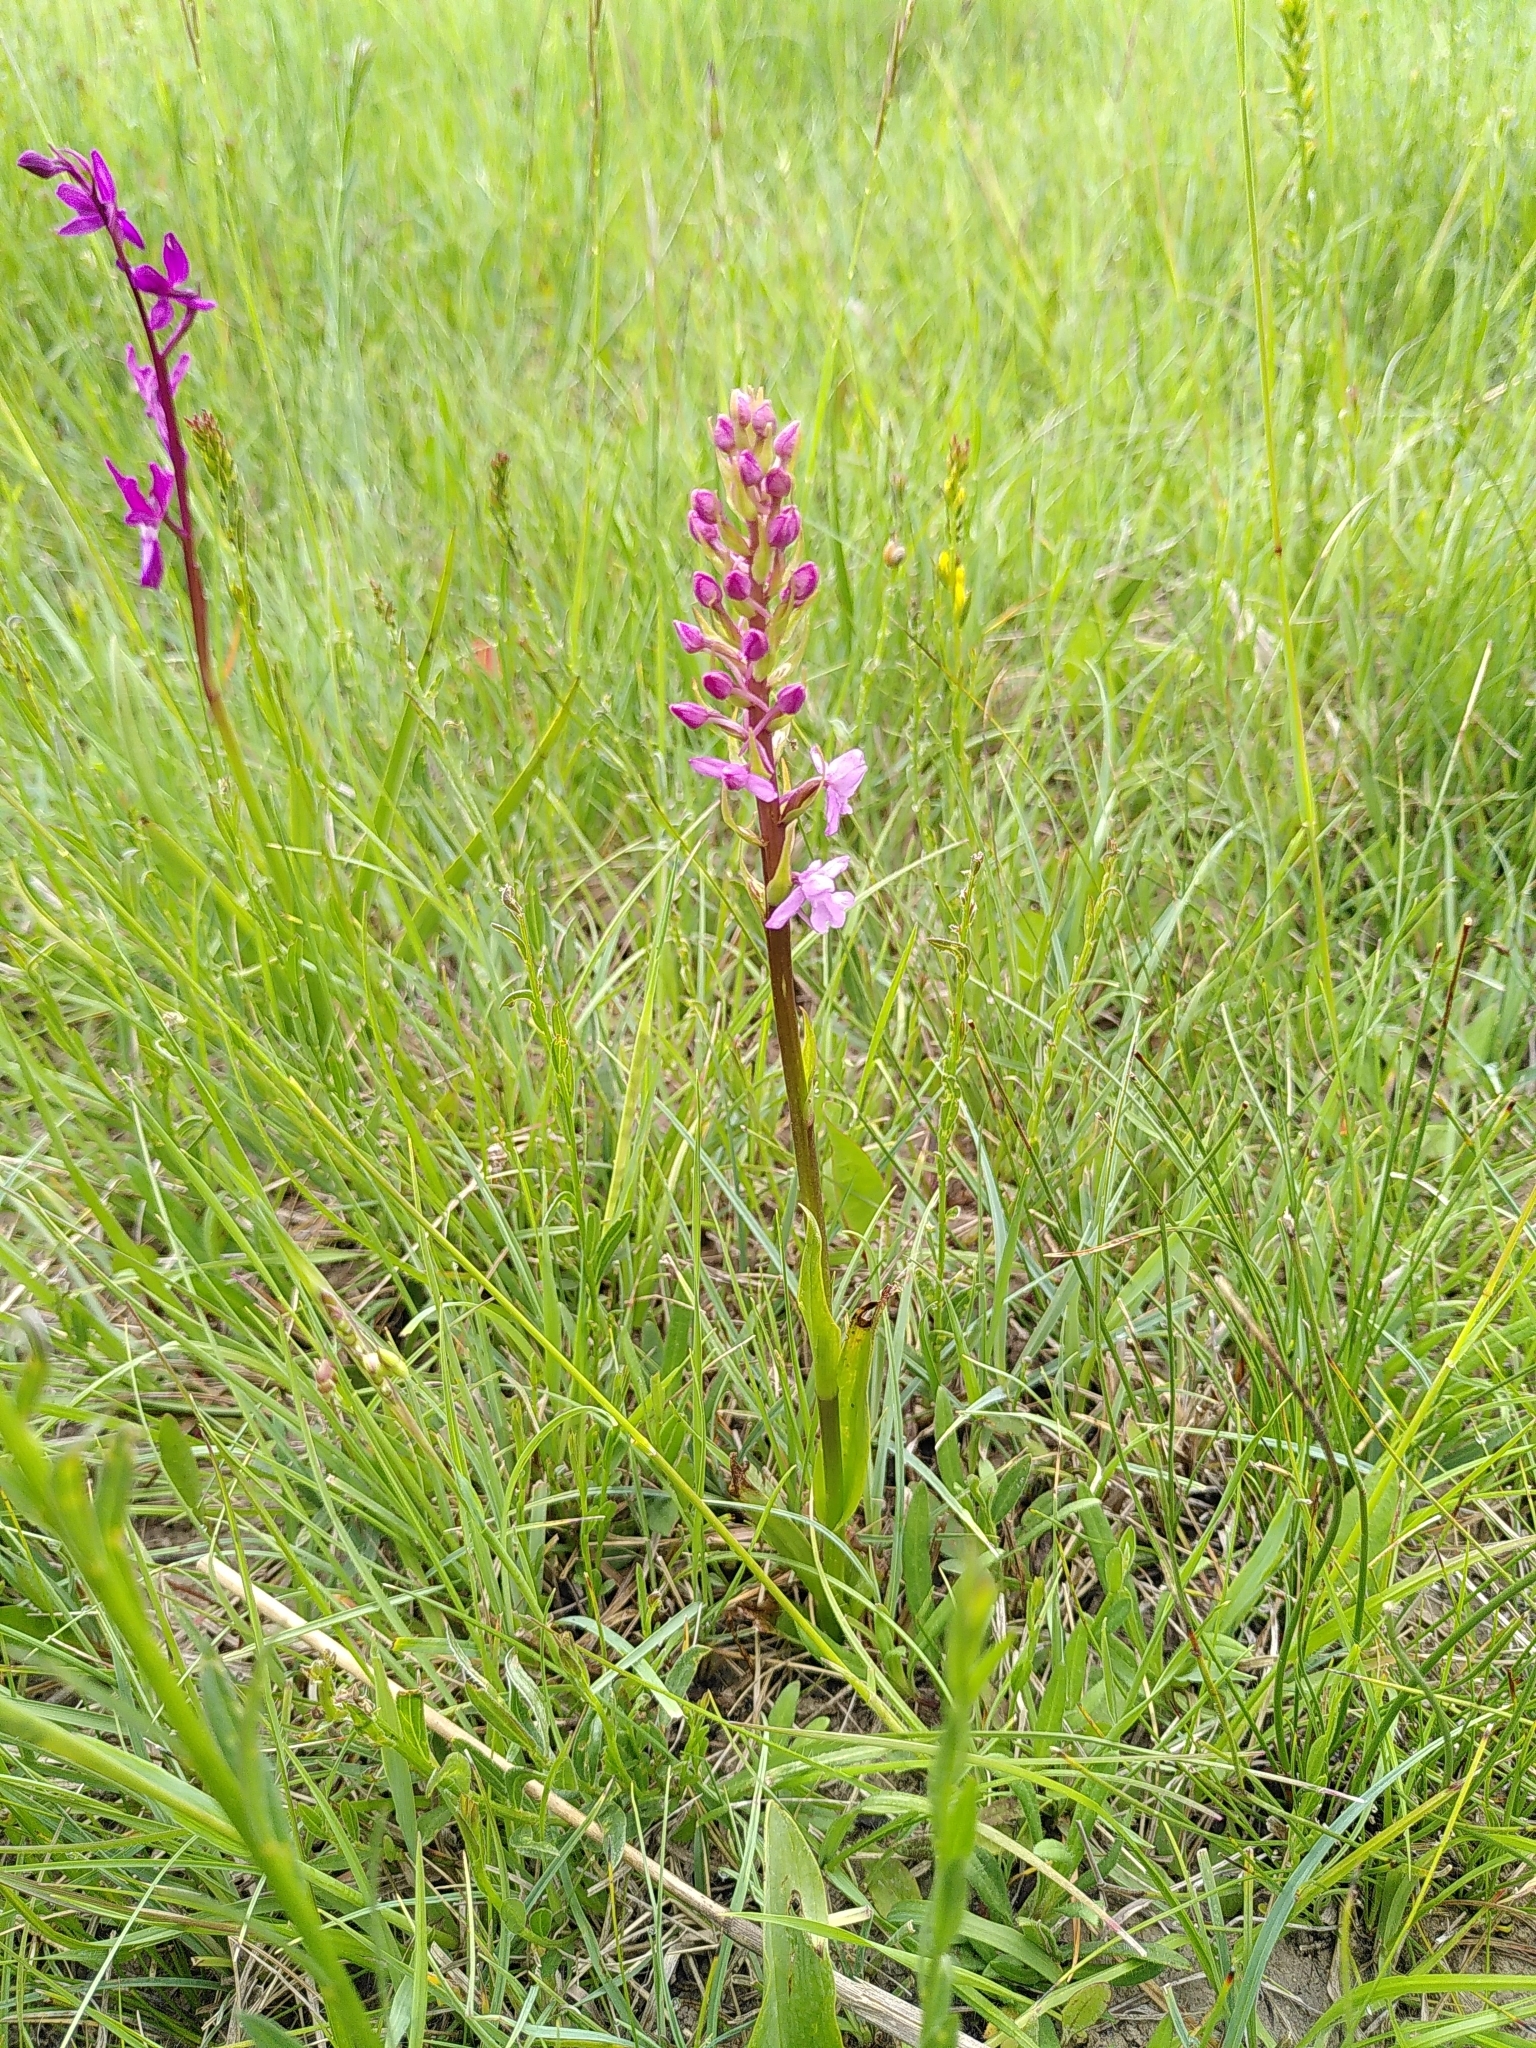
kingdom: Plantae
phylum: Tracheophyta
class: Liliopsida
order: Asparagales
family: Orchidaceae
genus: Gymnadenia
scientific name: Gymnadenia conopsea
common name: Fragrant orchid
